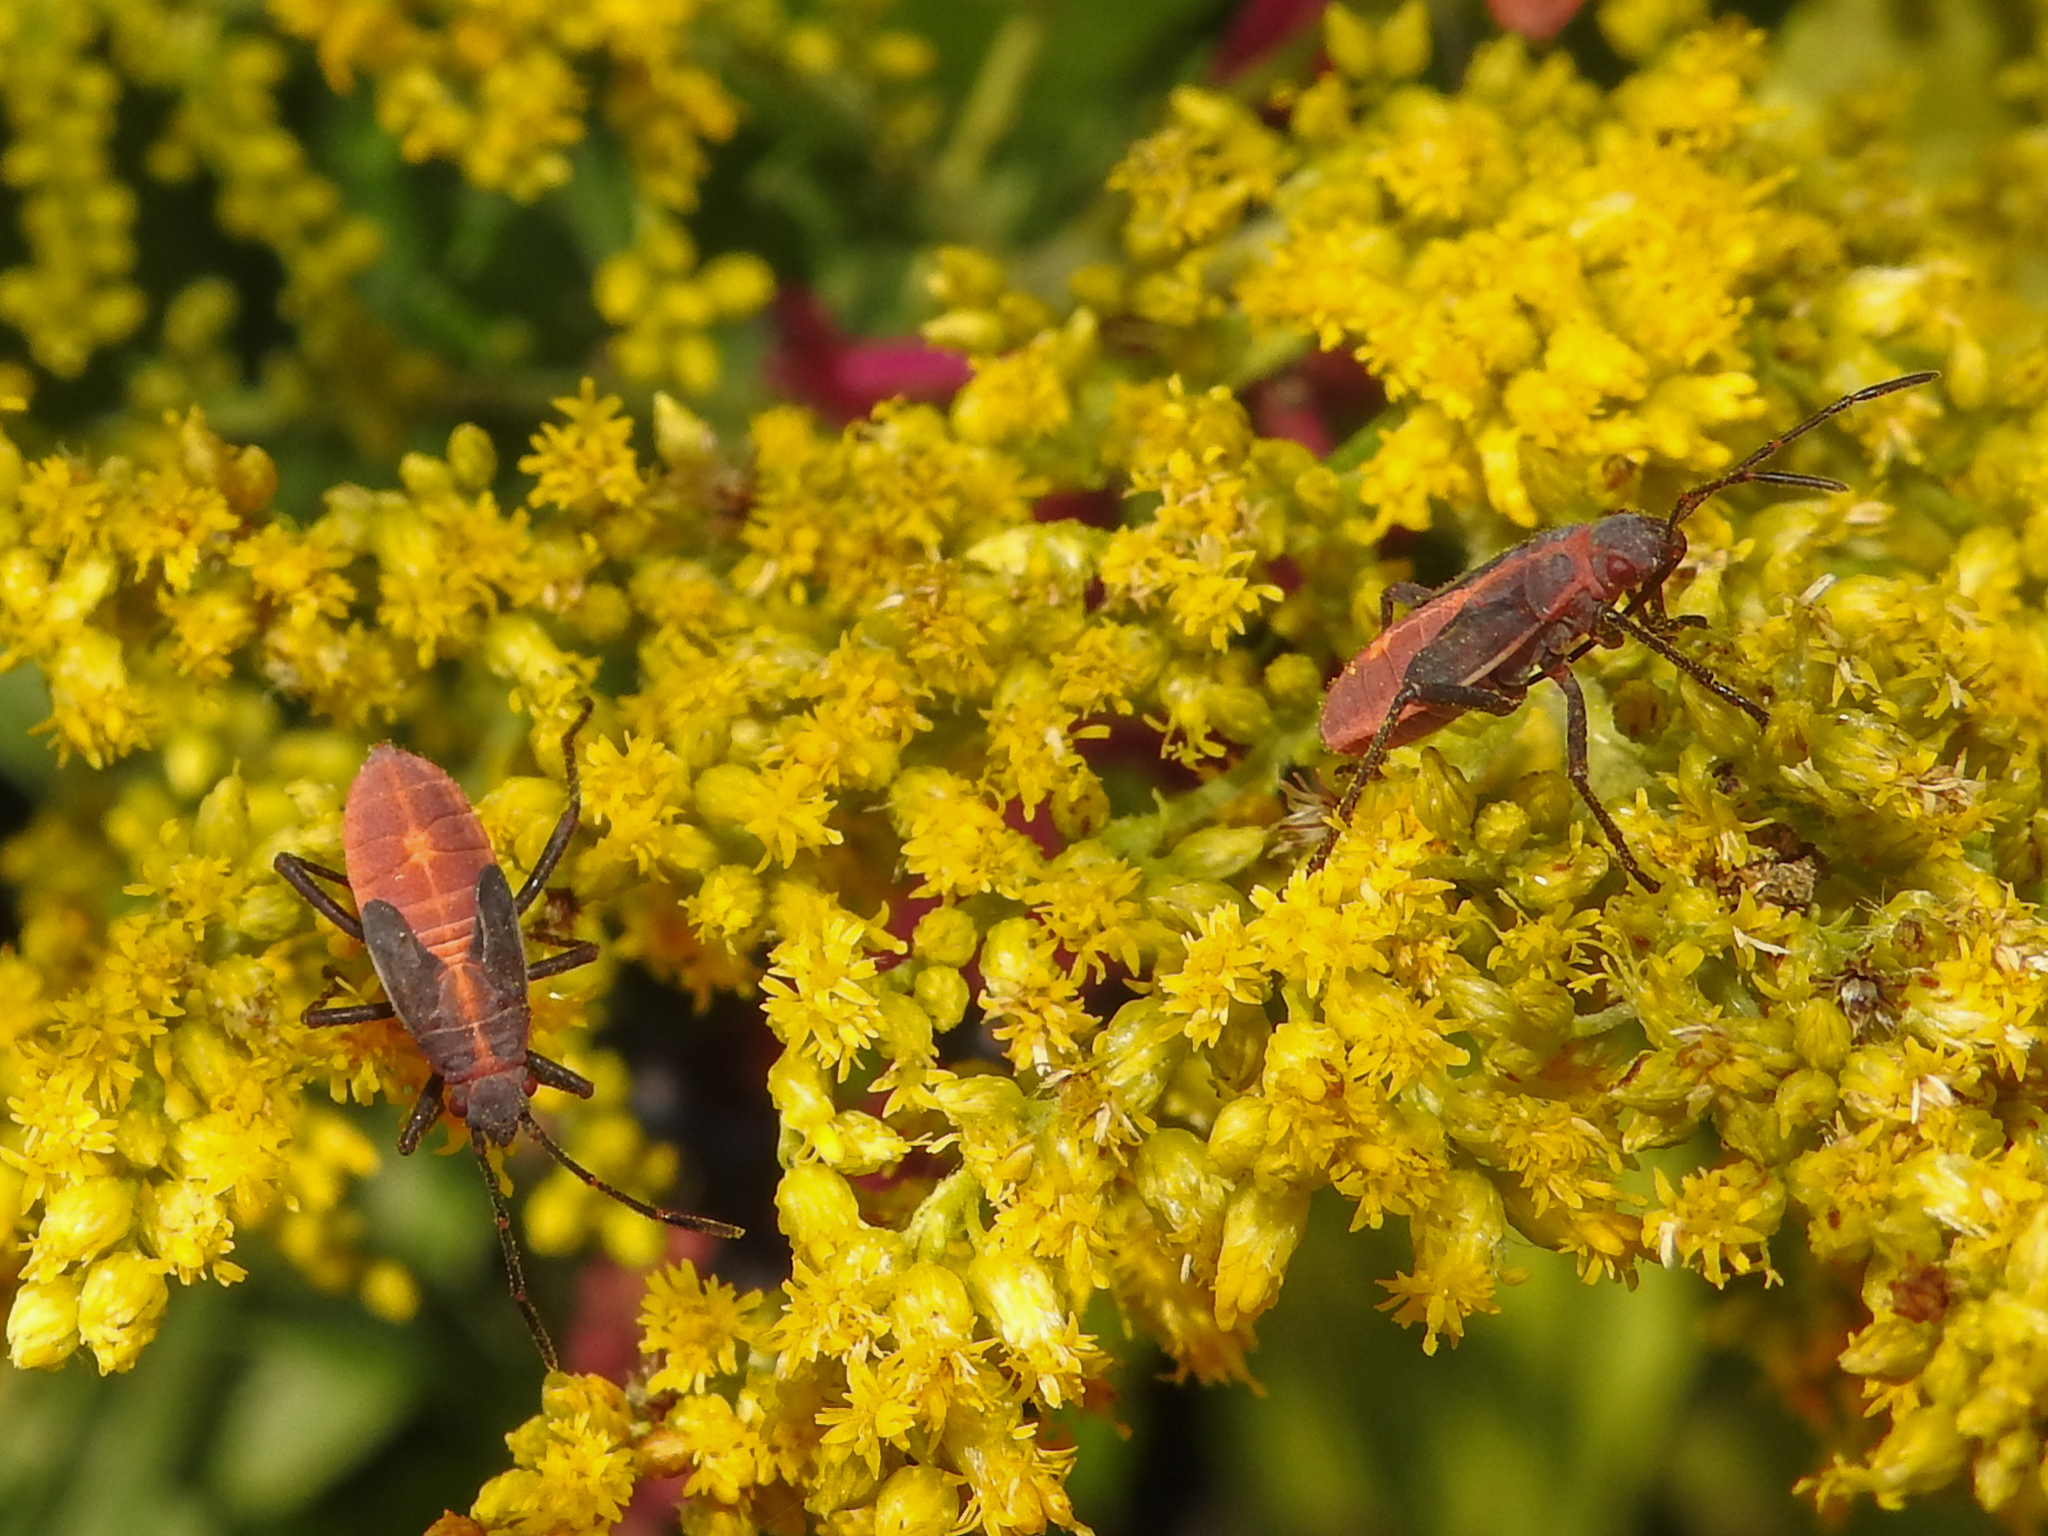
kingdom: Animalia
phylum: Arthropoda
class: Insecta
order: Hemiptera
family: Rhopalidae
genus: Boisea
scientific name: Boisea trivittata
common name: Boxelder bug
